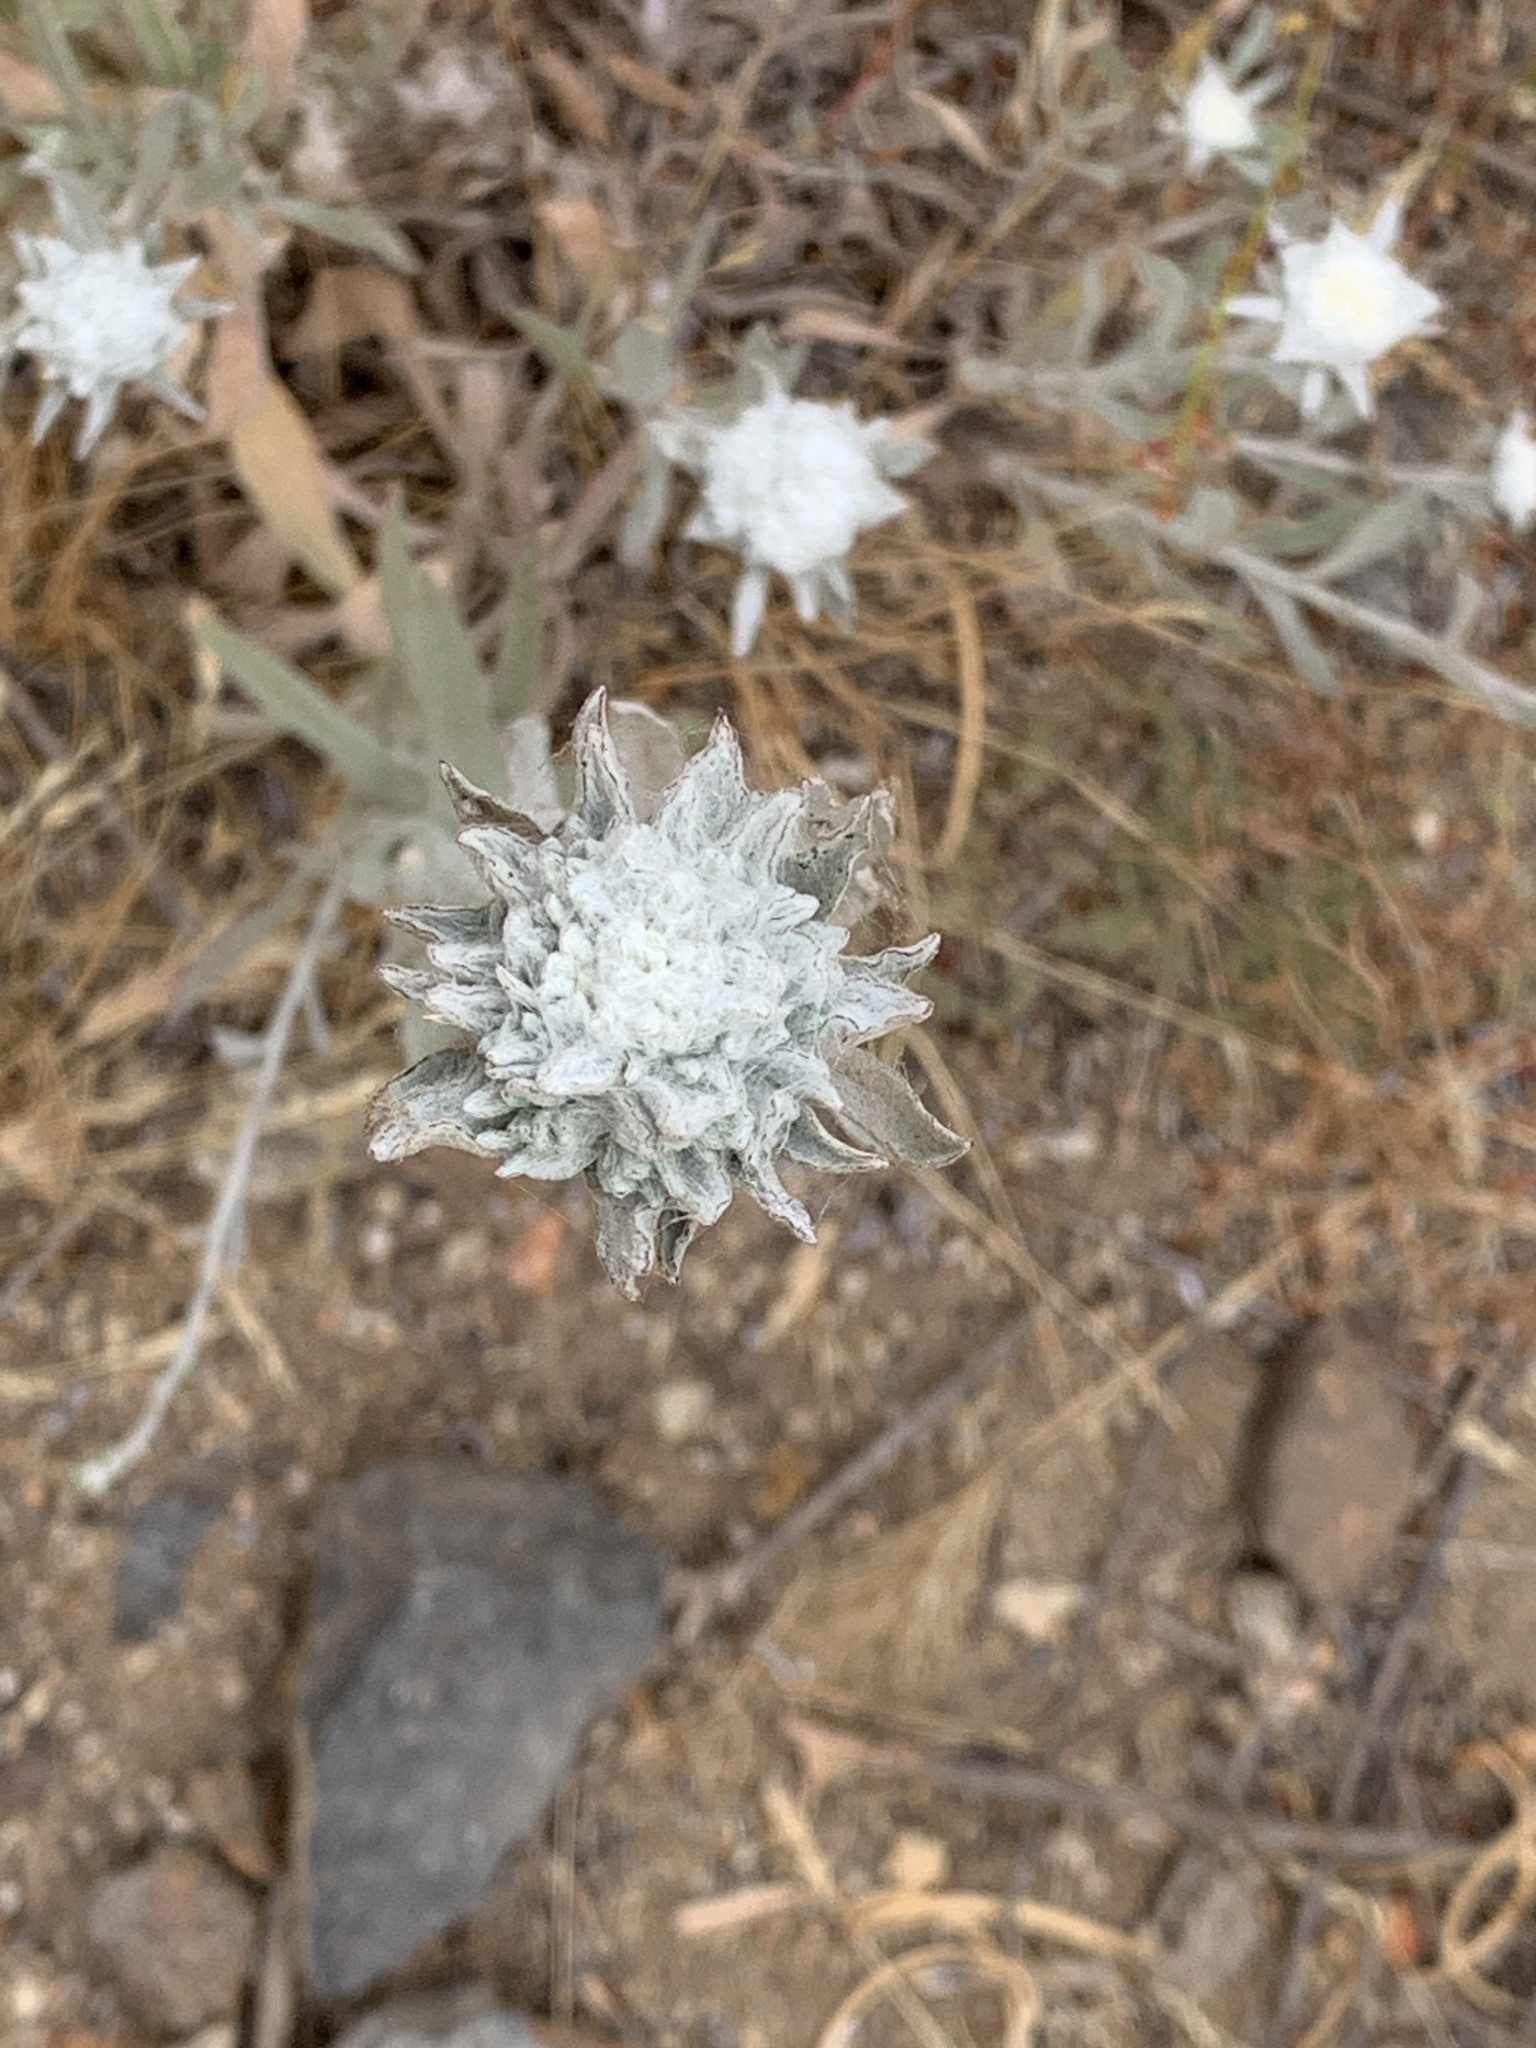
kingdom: Plantae
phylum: Tracheophyta
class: Magnoliopsida
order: Asterales
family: Asteraceae
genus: Corethrogyne
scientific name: Corethrogyne filaginifolia
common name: Sand-aster
